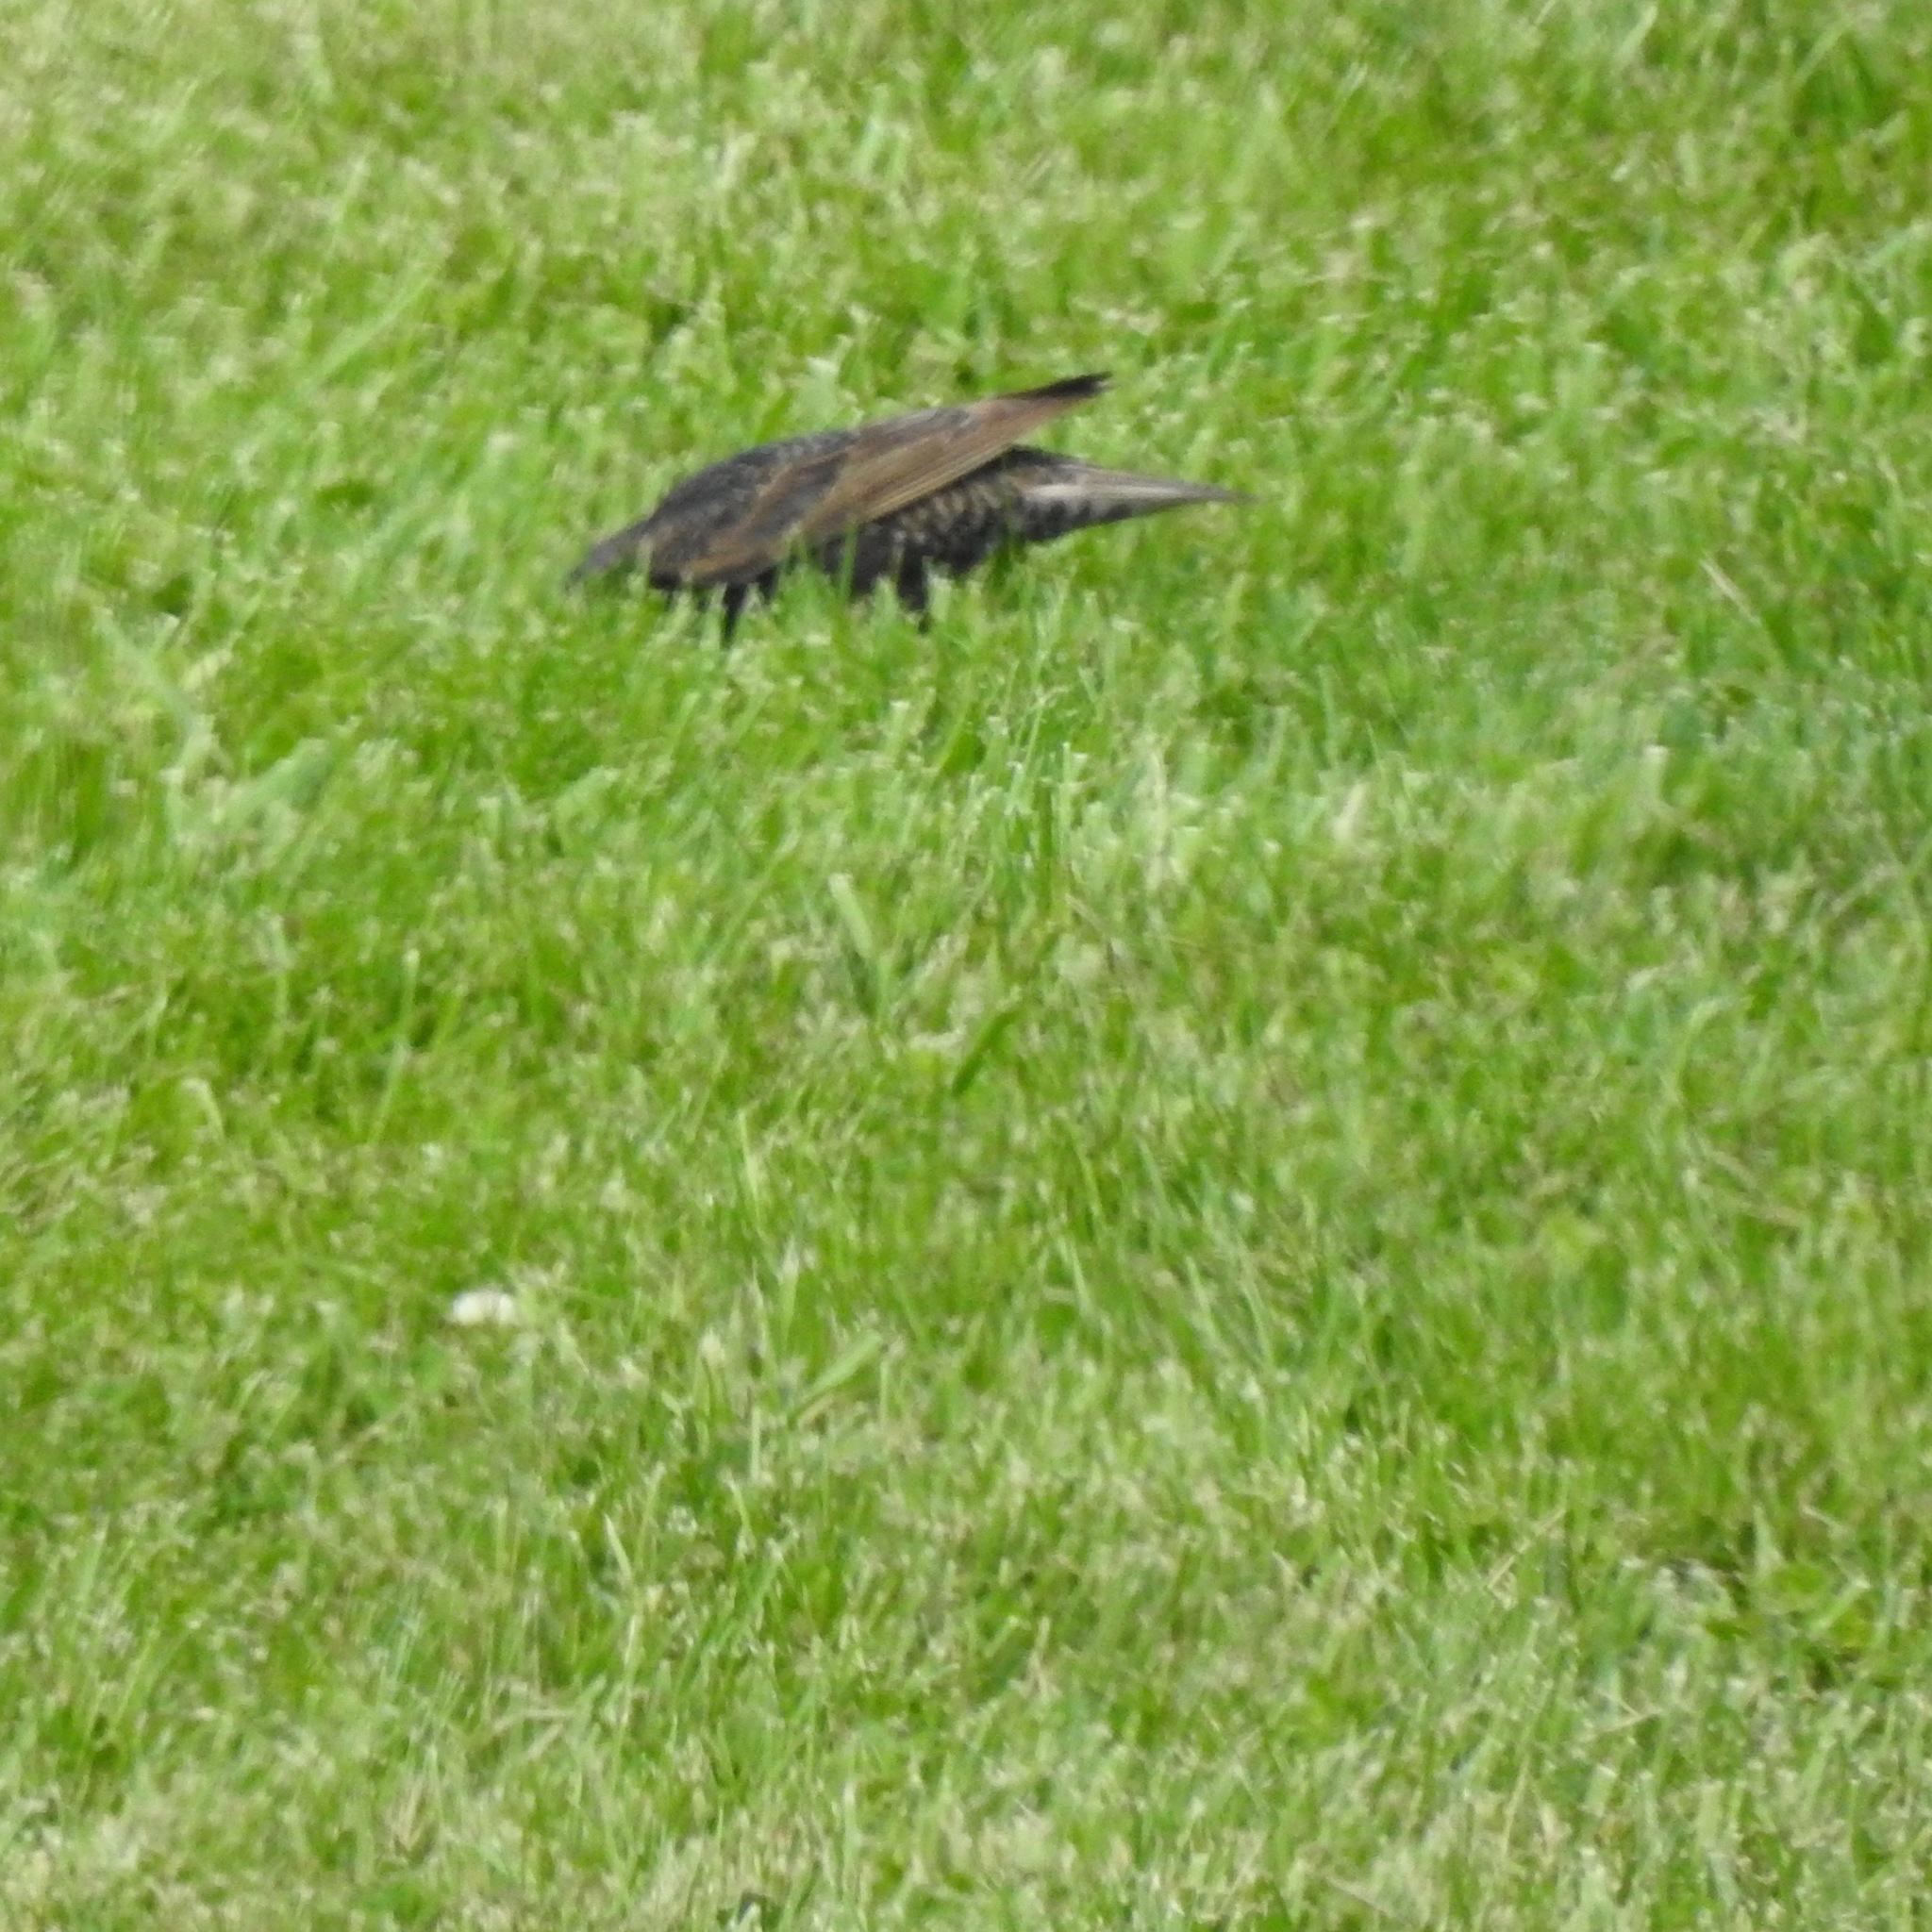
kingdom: Animalia
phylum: Chordata
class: Aves
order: Passeriformes
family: Sturnidae
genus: Sturnus
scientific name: Sturnus vulgaris
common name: Common starling
